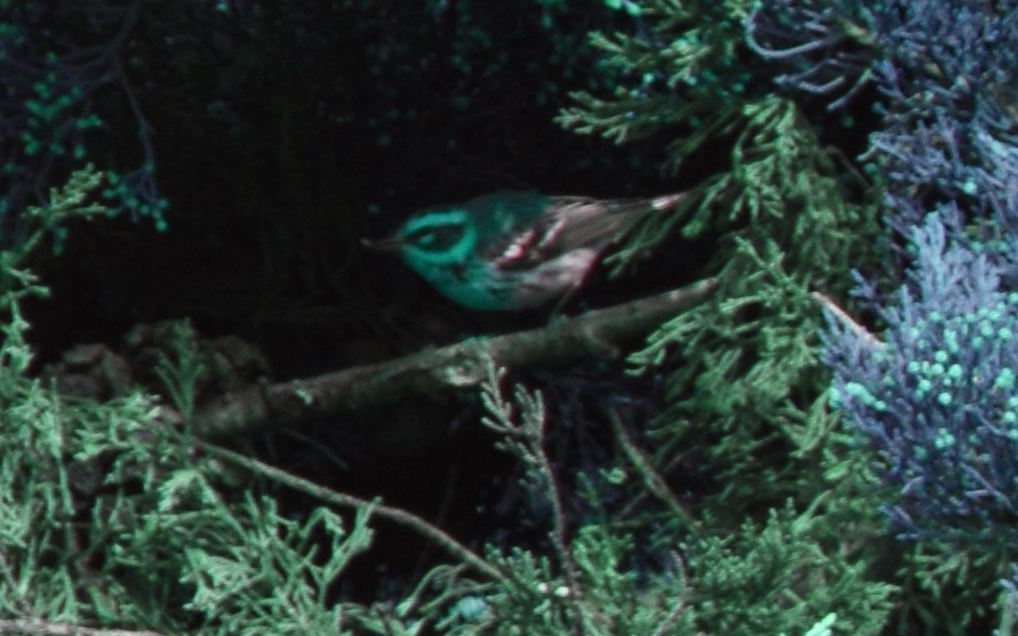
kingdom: Animalia
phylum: Chordata
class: Aves
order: Passeriformes
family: Parulidae
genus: Setophaga
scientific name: Setophaga townsendi
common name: Townsend's warbler
